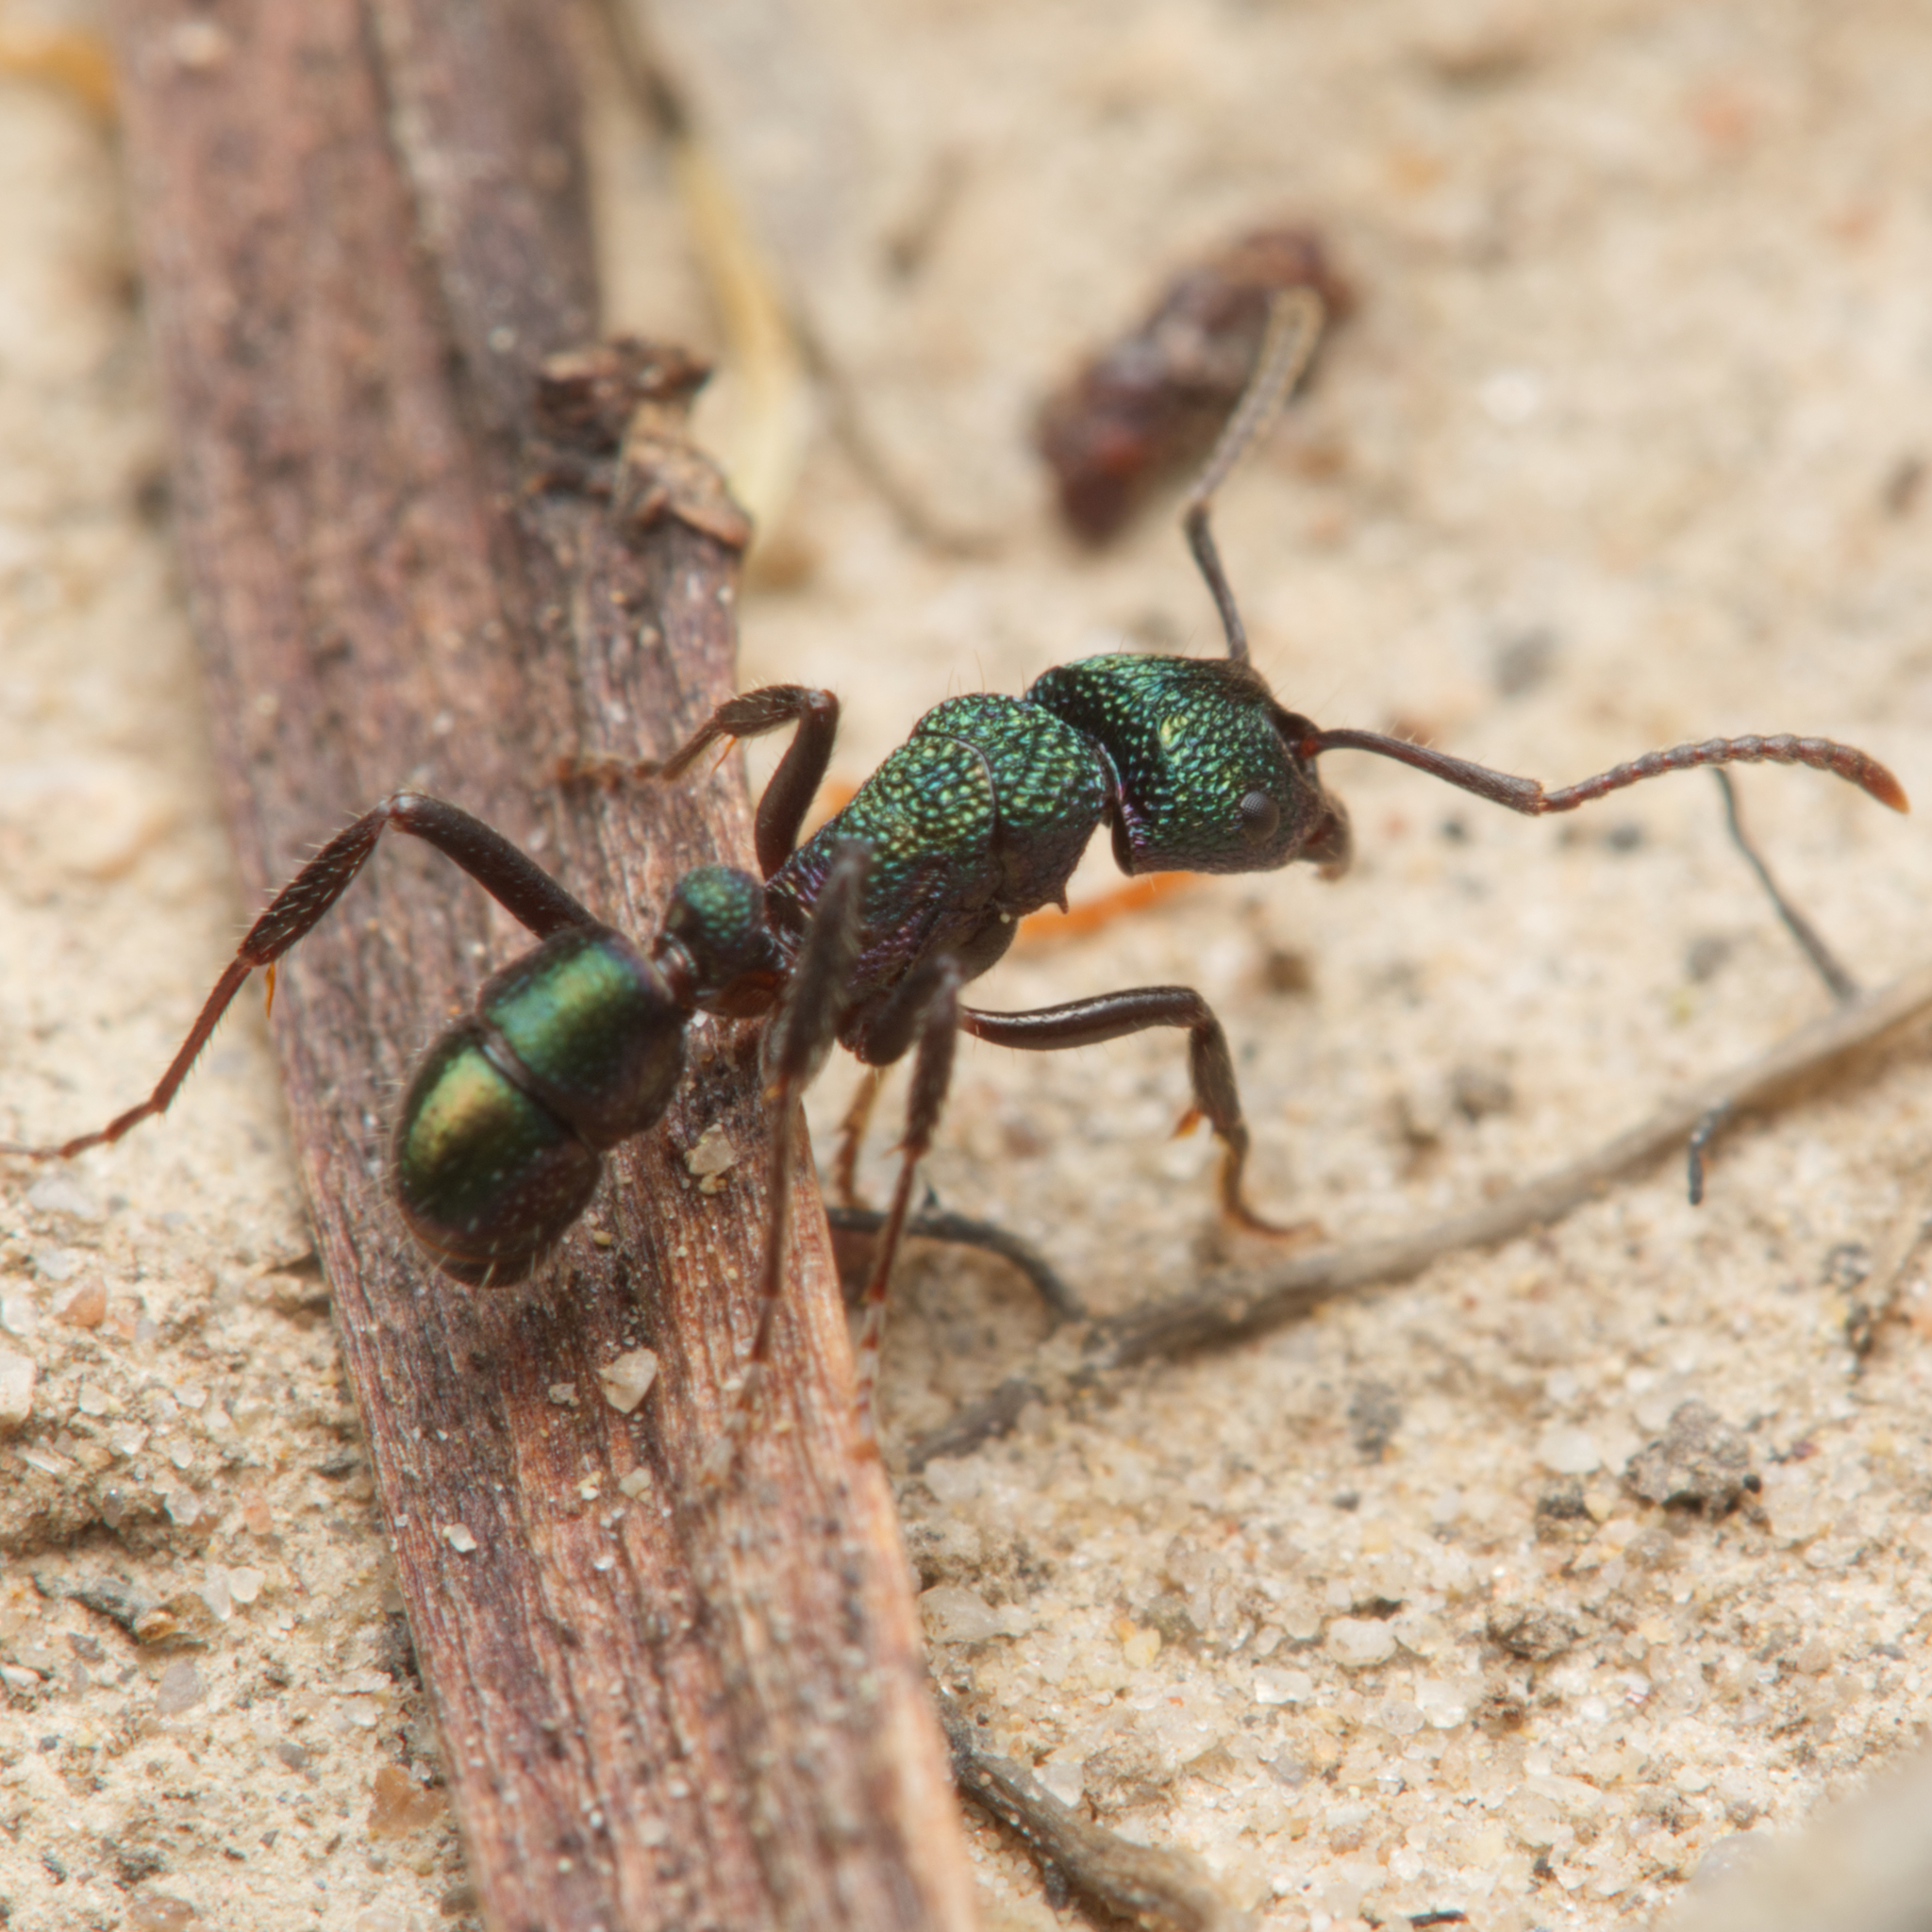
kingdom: Animalia
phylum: Arthropoda
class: Insecta
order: Hymenoptera
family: Formicidae
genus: Rhytidoponera
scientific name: Rhytidoponera metallica
